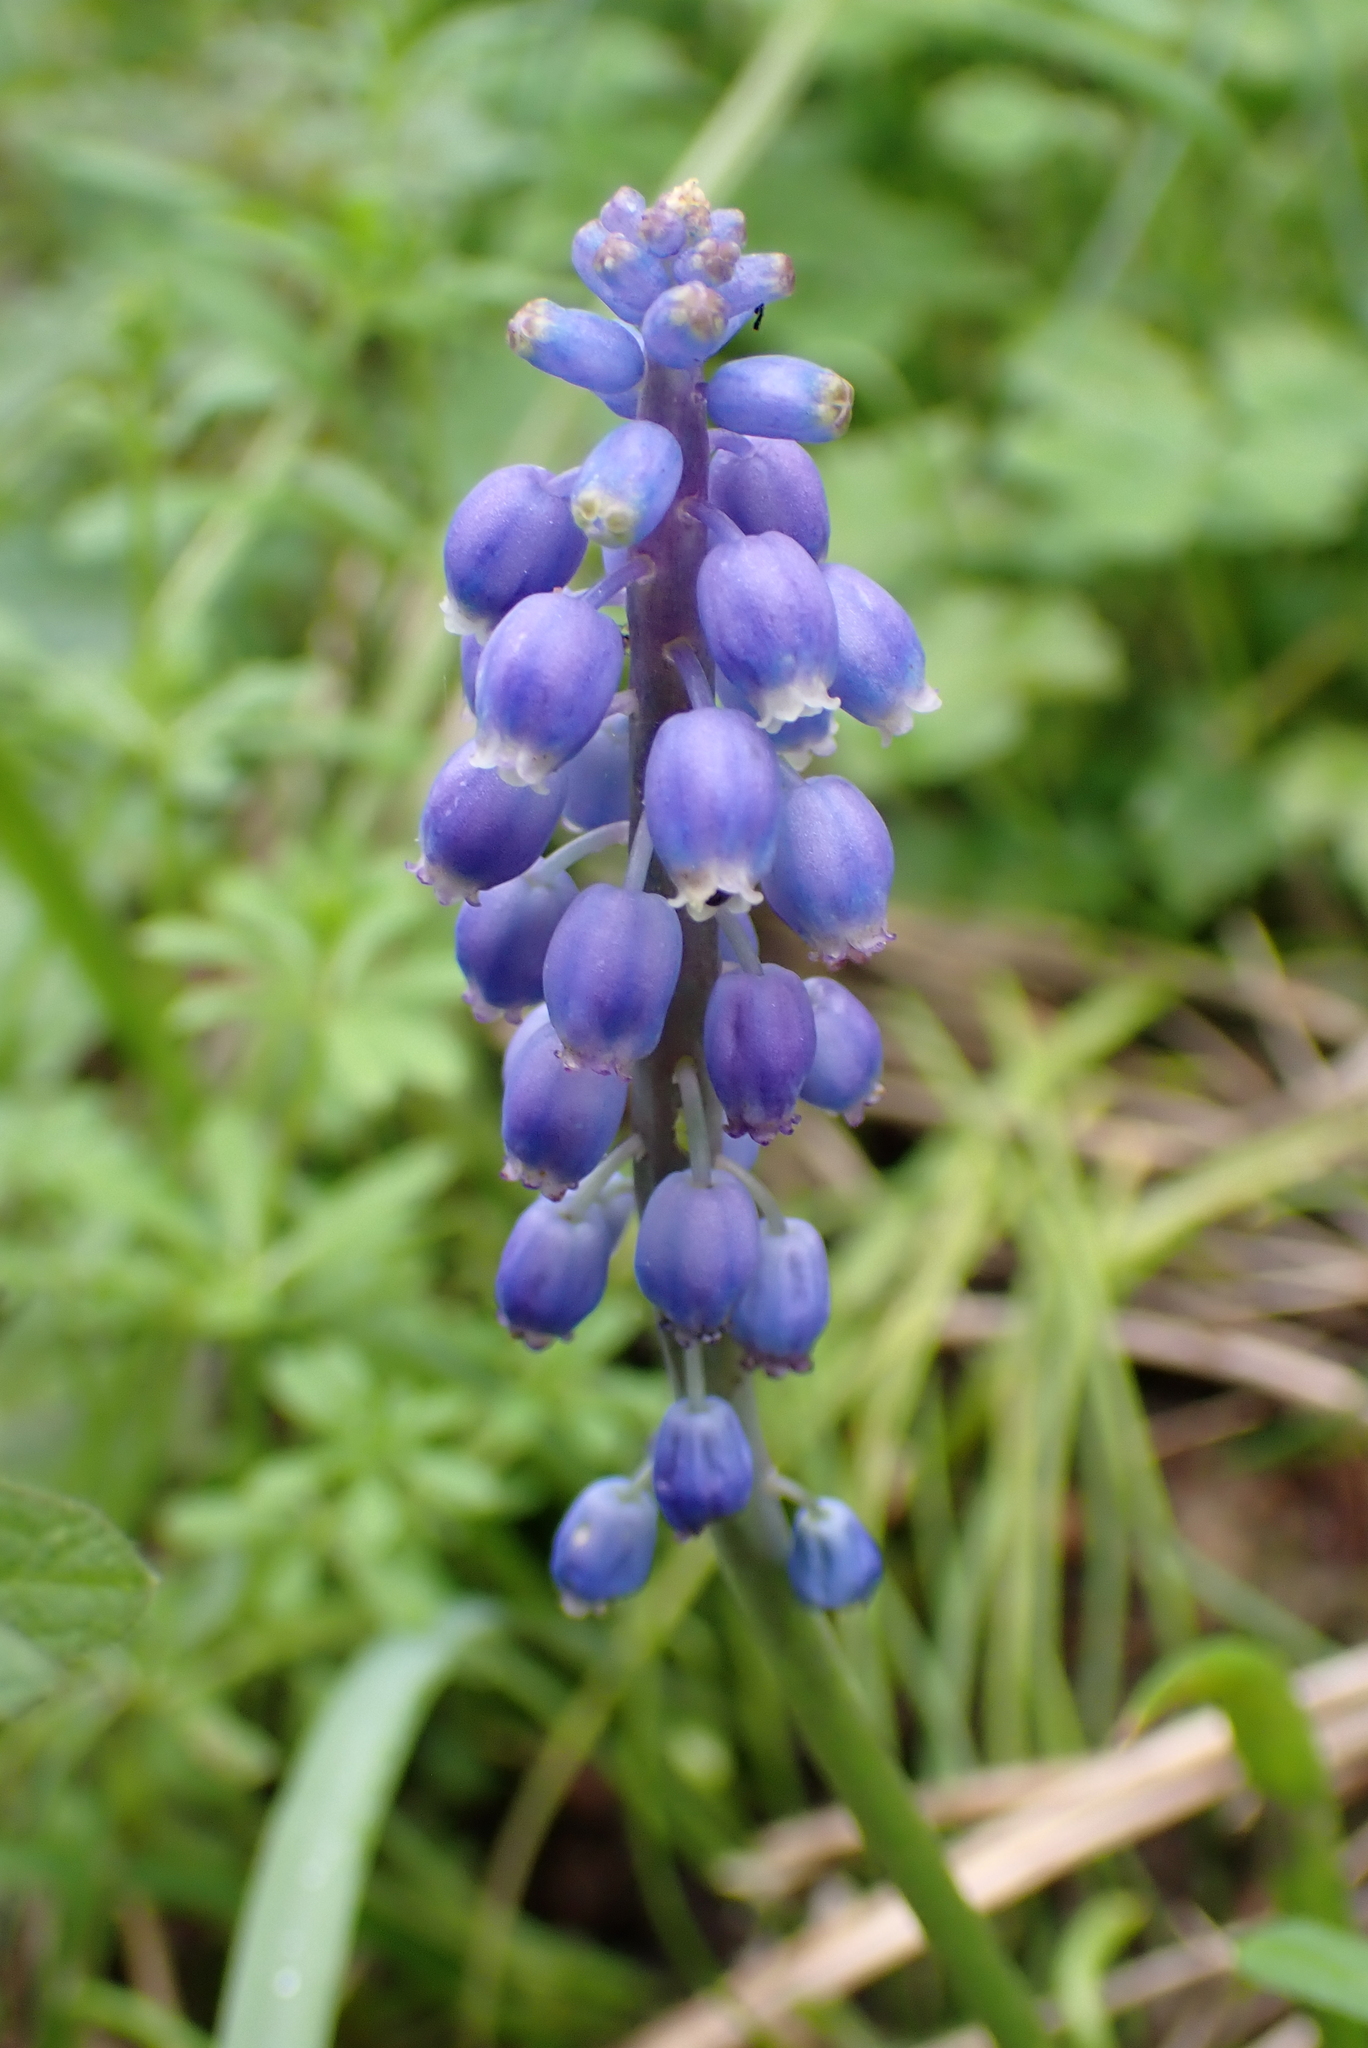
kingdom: Plantae
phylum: Tracheophyta
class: Liliopsida
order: Asparagales
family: Asparagaceae
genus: Muscari
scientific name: Muscari armeniacum
